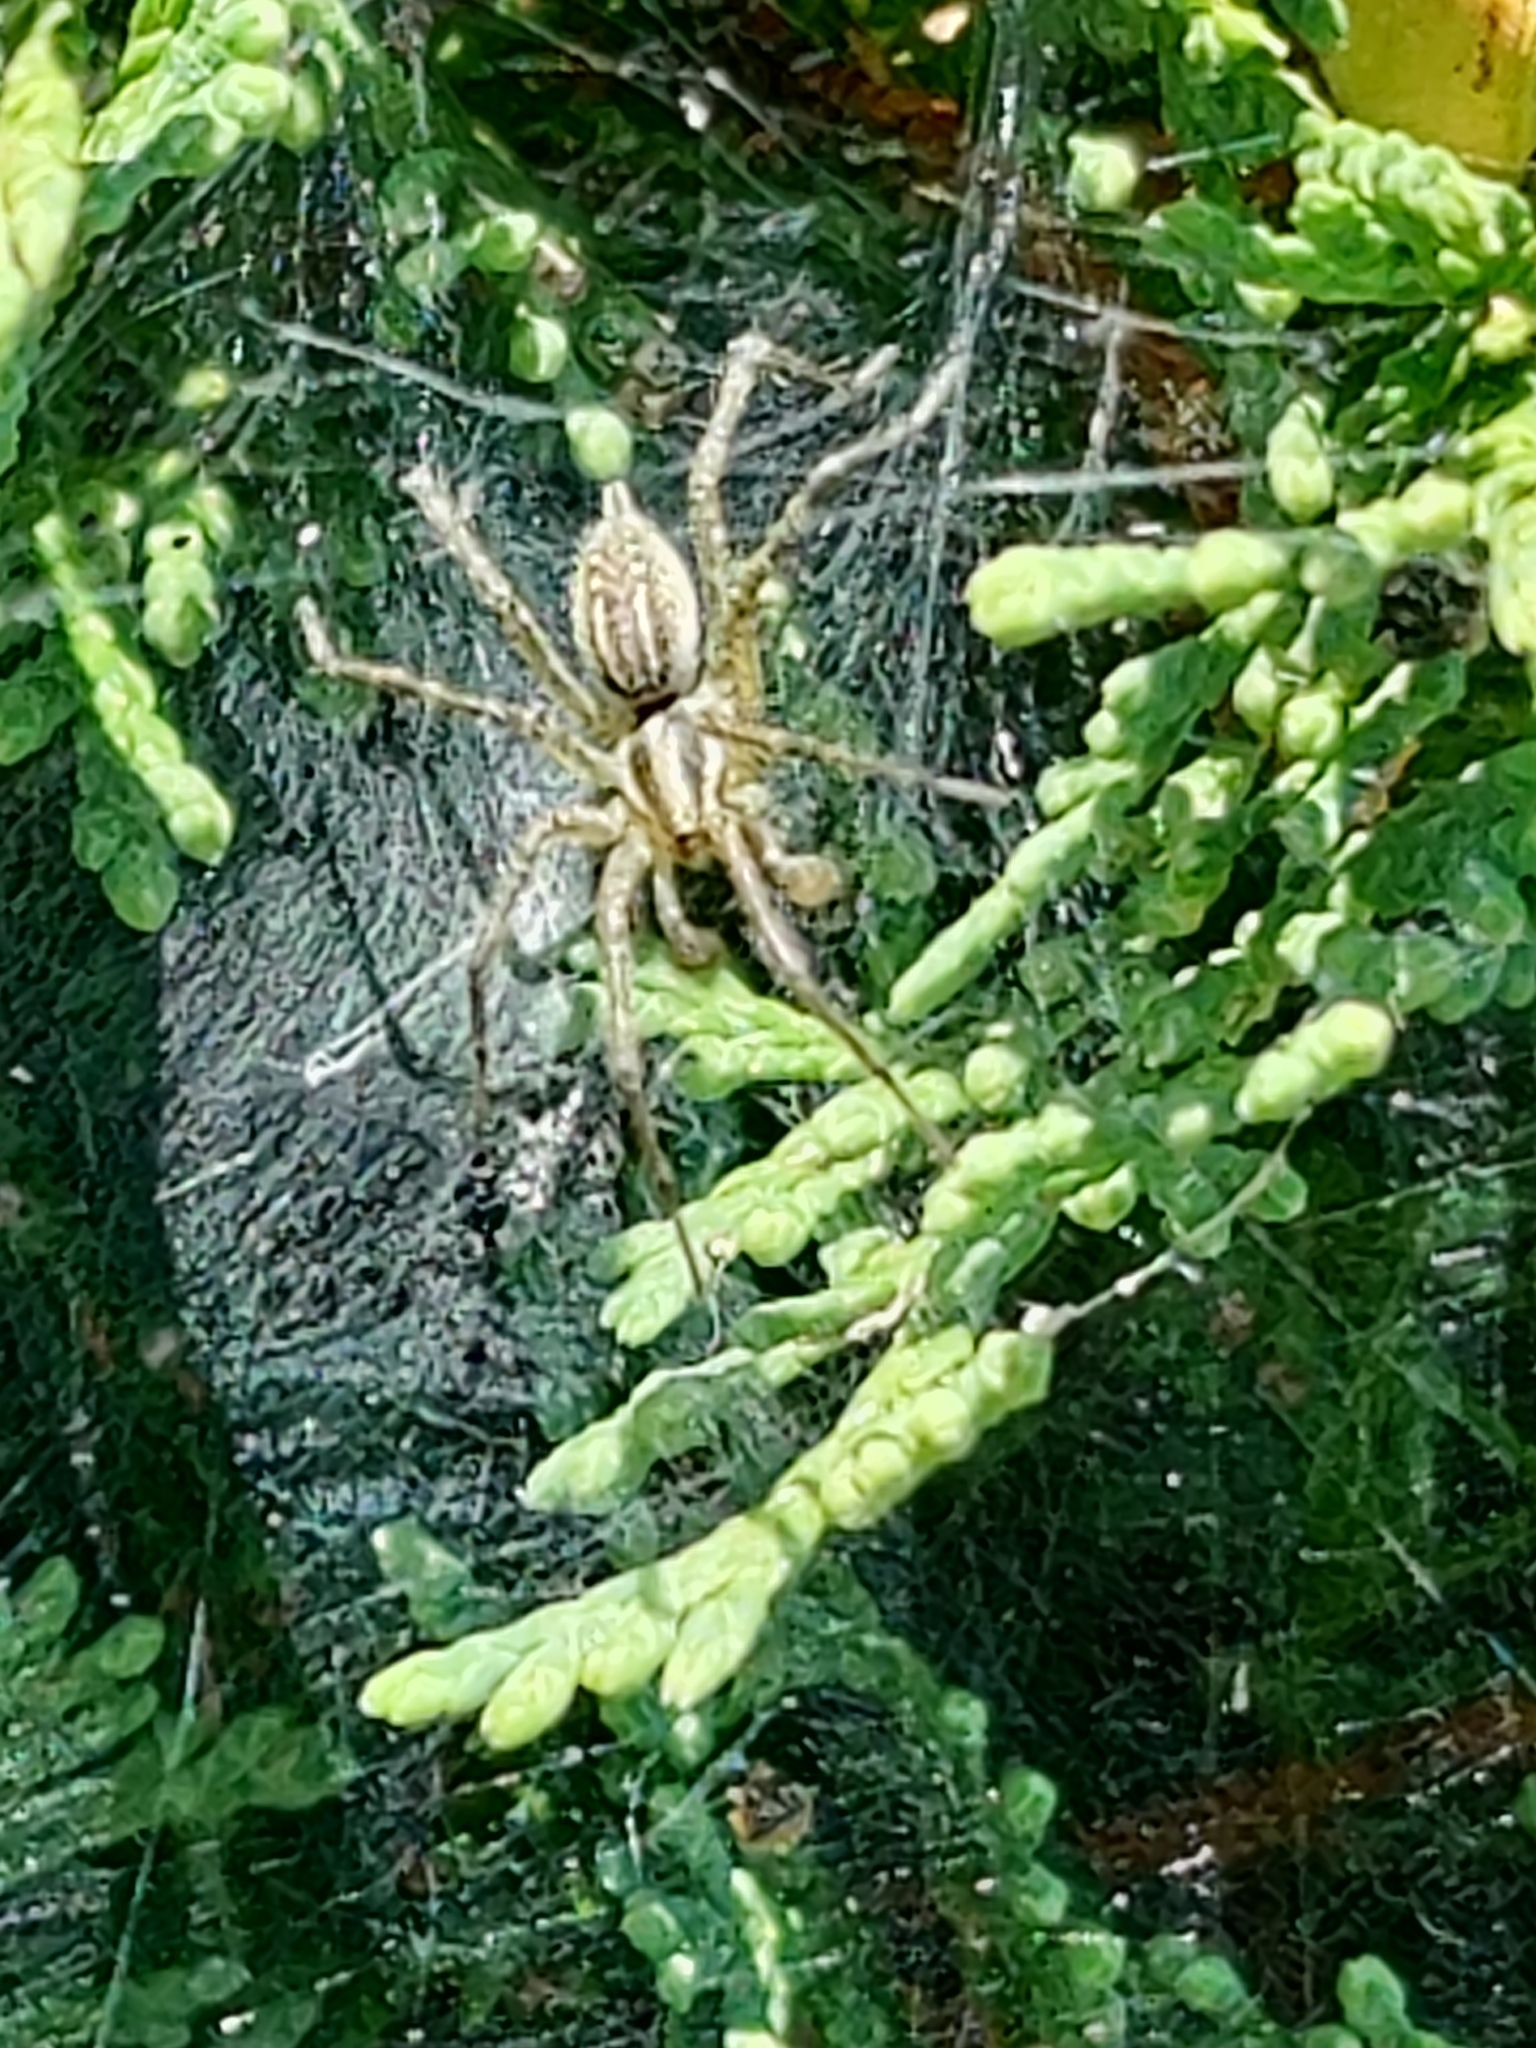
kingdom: Animalia
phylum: Arthropoda
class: Arachnida
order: Araneae
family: Agelenidae
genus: Agelenopsis
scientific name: Agelenopsis
